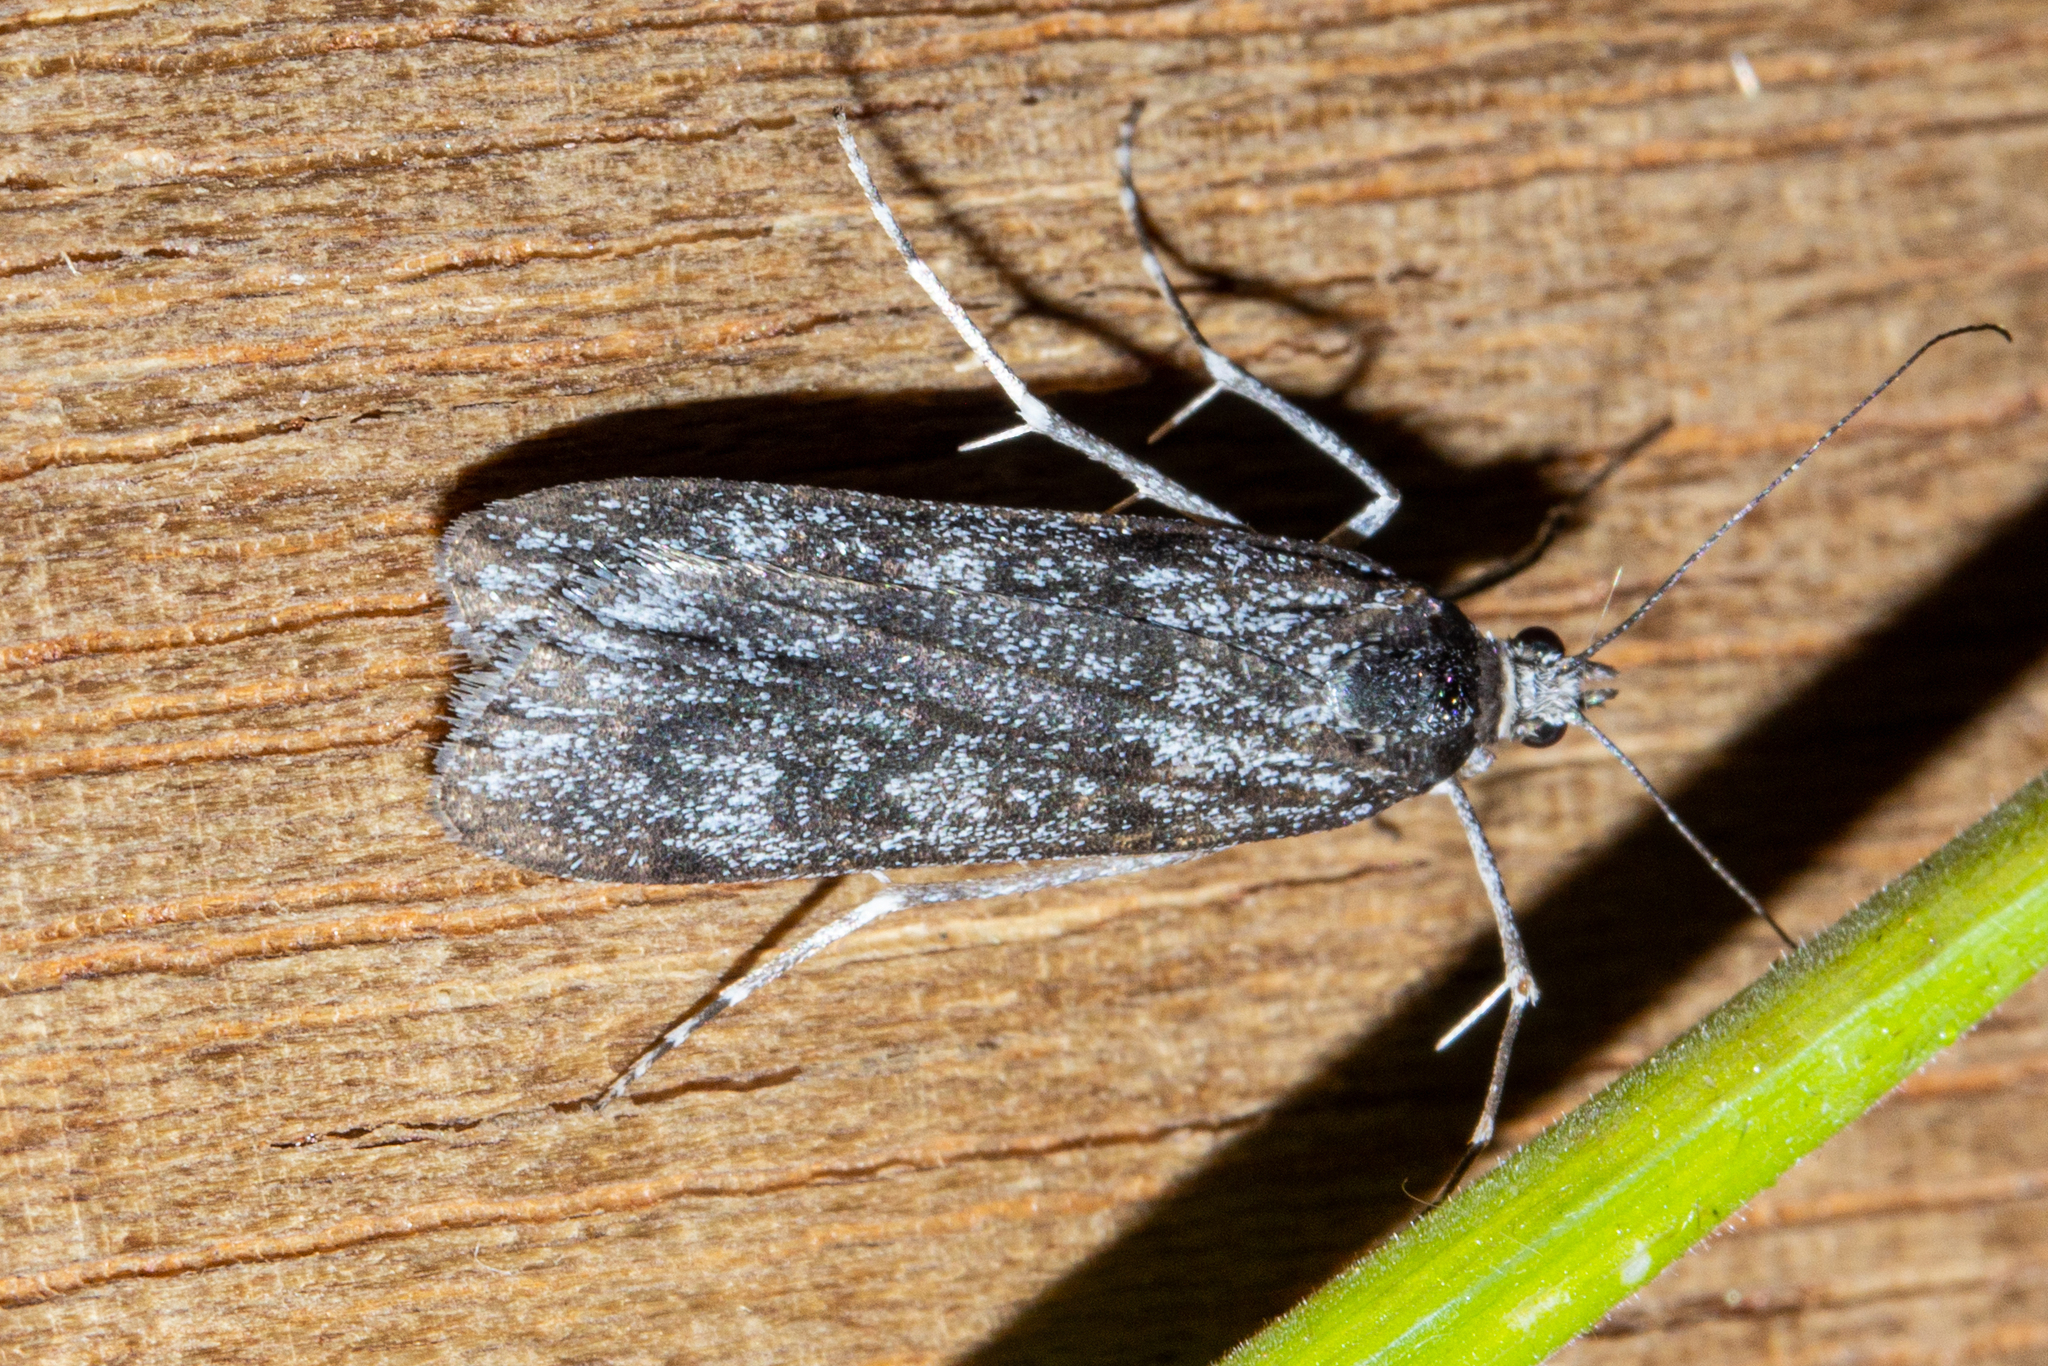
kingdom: Animalia
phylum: Arthropoda
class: Insecta
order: Lepidoptera
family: Crambidae
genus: Scoparia
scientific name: Scoparia asaleuta
